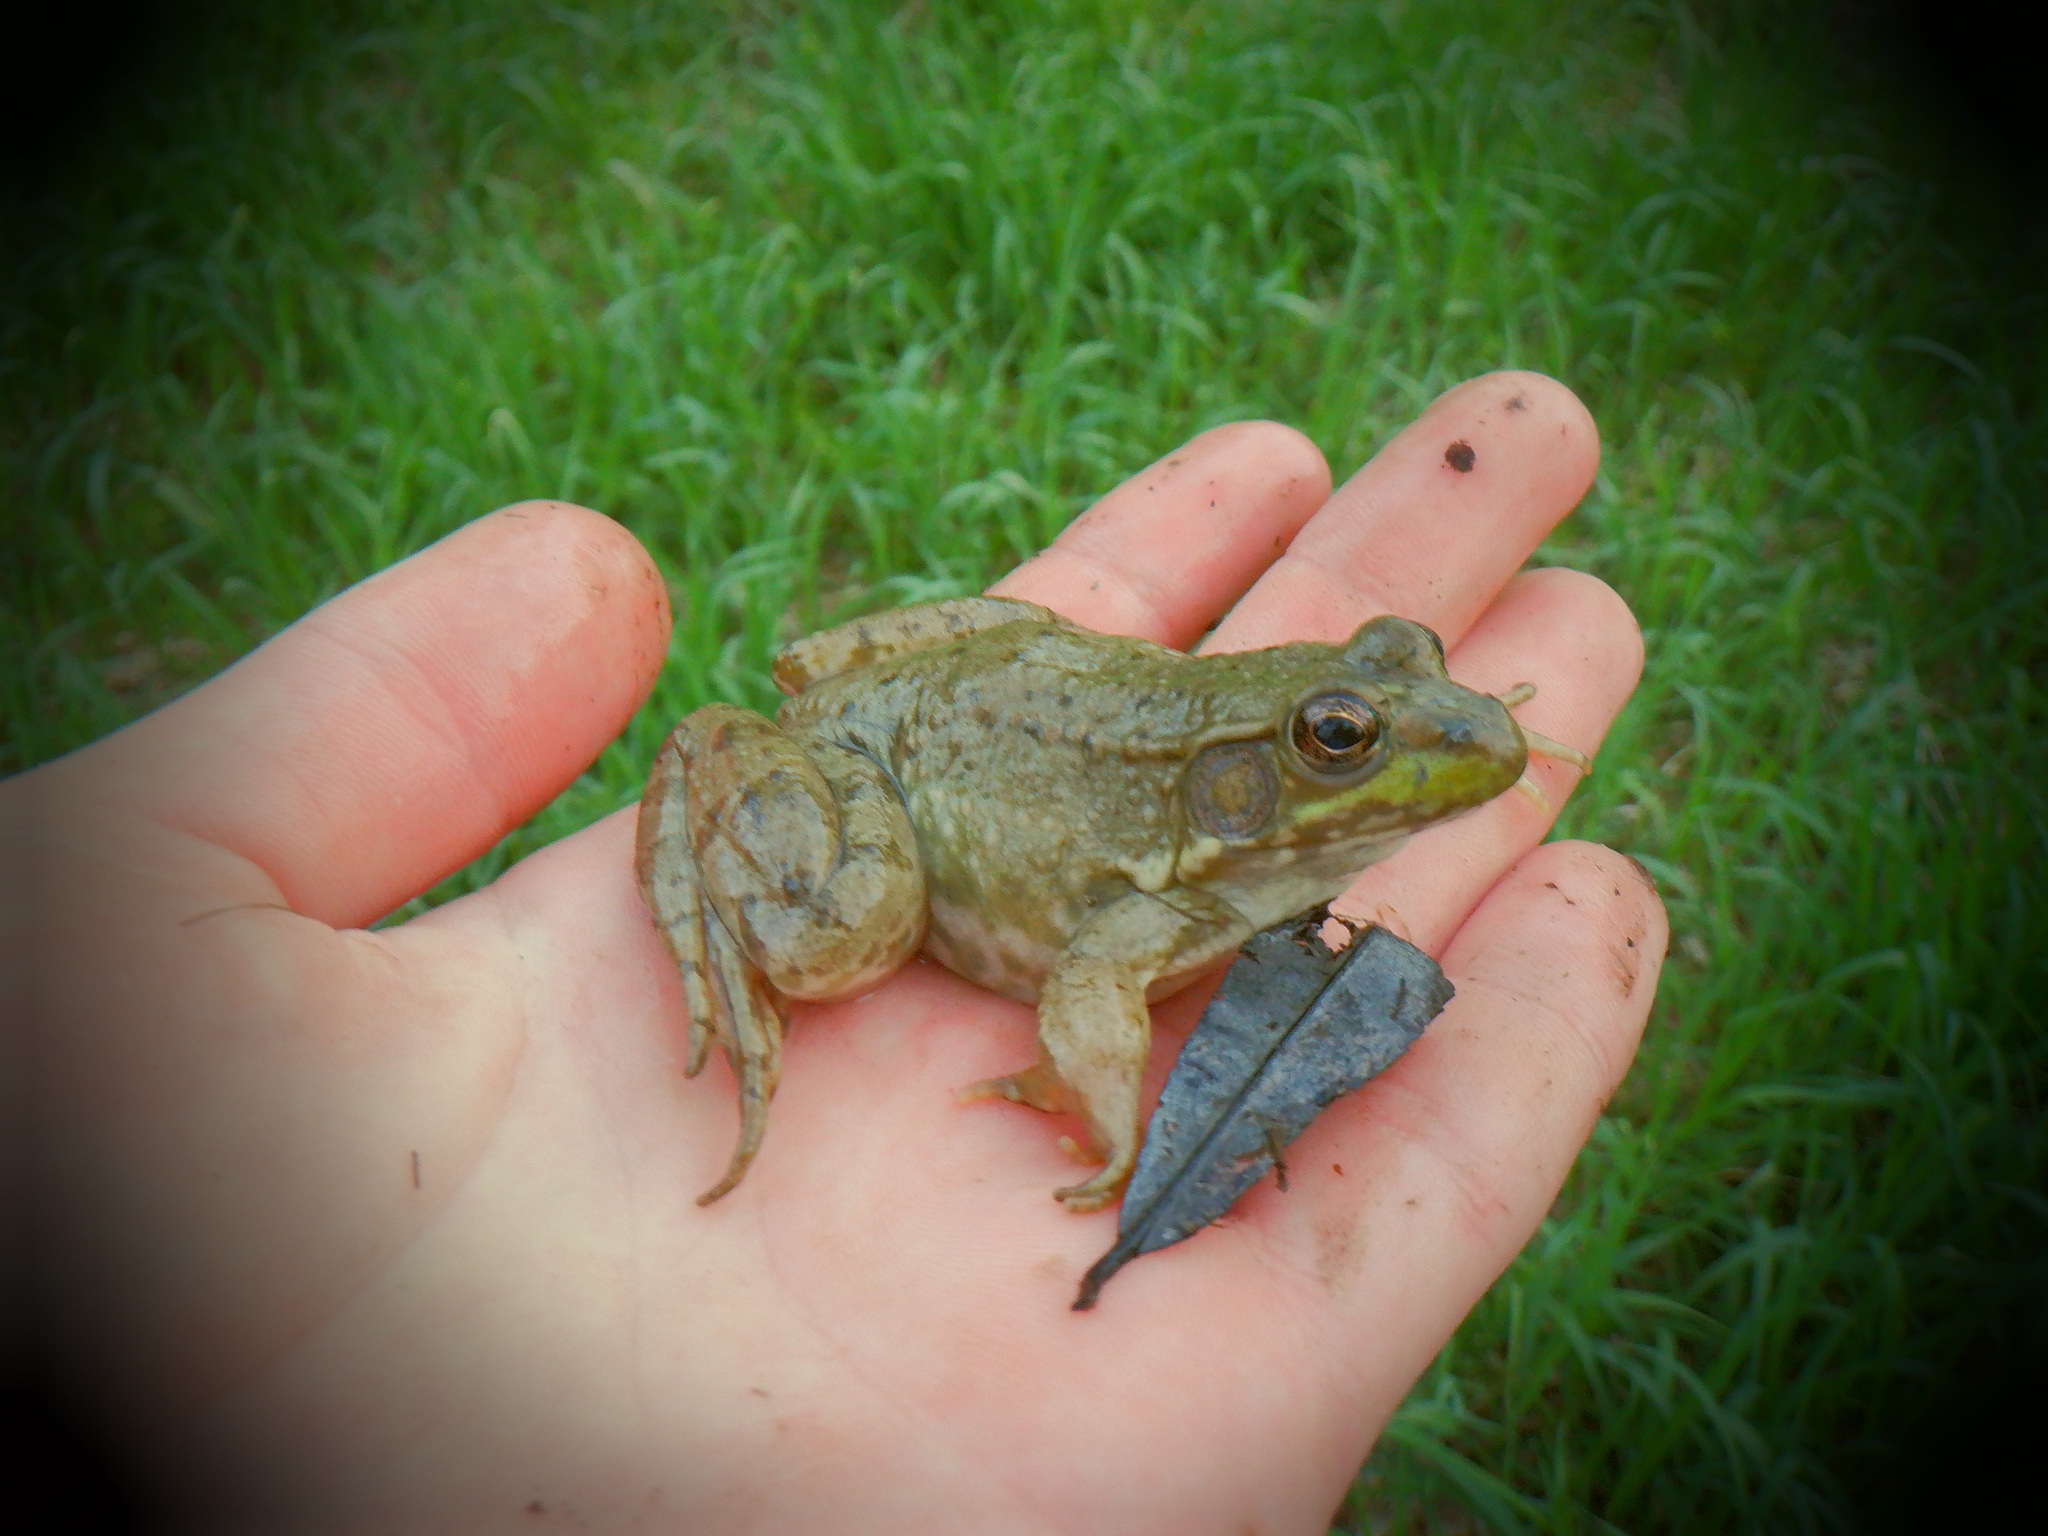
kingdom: Animalia
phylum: Chordata
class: Amphibia
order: Anura
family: Ranidae
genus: Lithobates
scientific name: Lithobates clamitans
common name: Green frog
